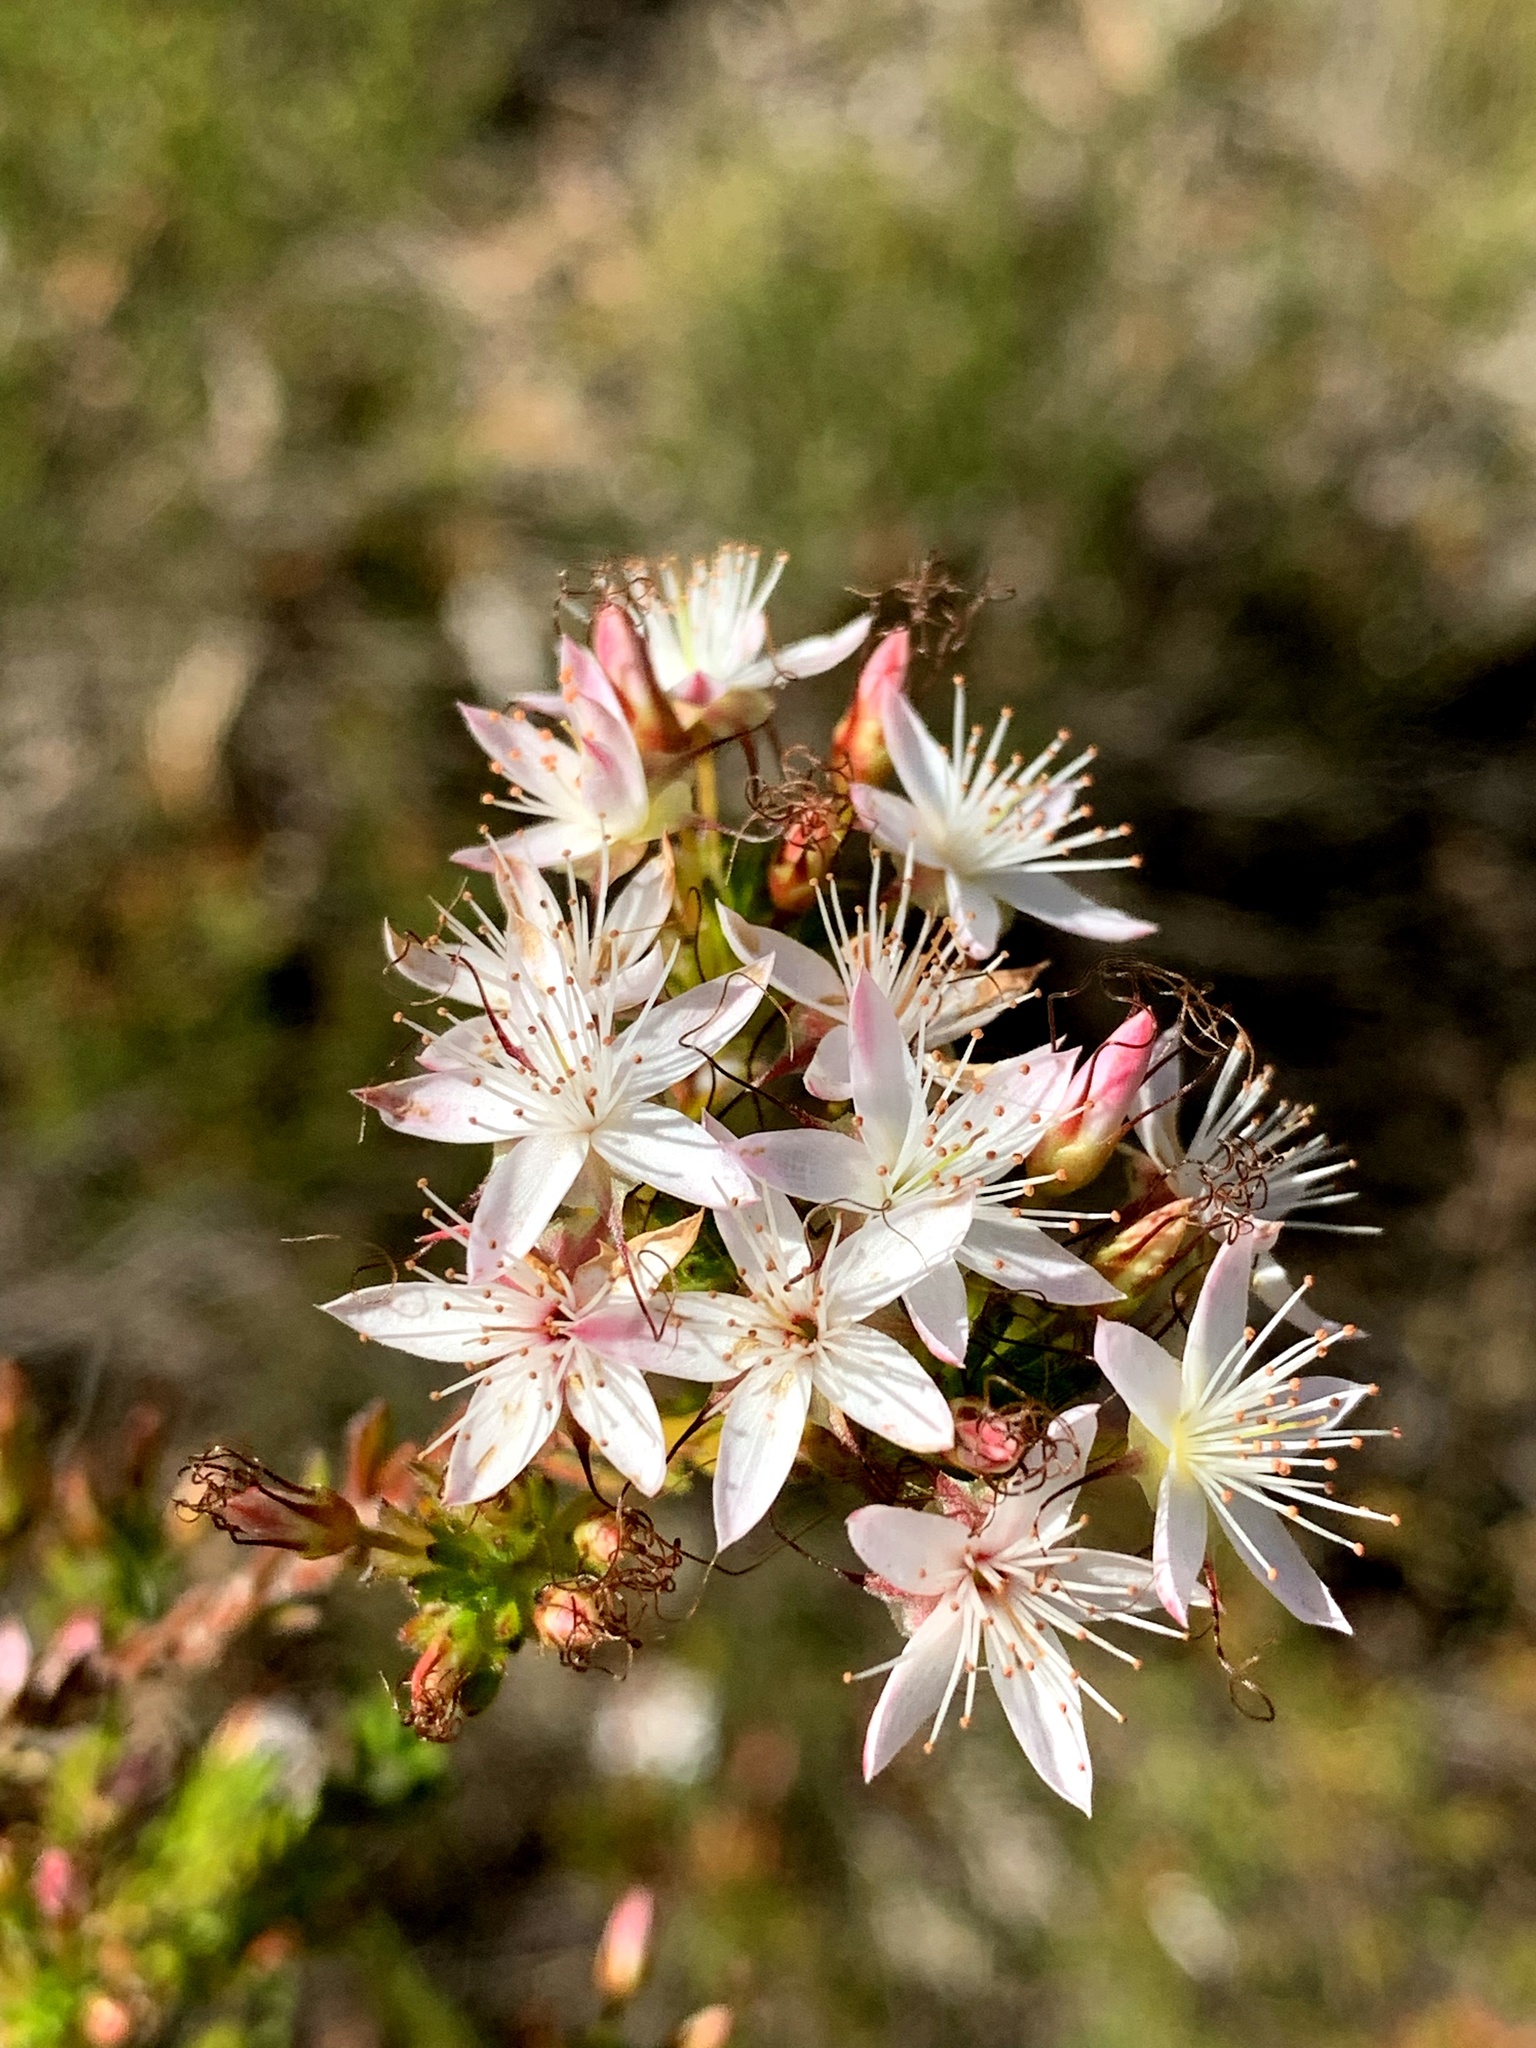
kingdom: Plantae
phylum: Tracheophyta
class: Magnoliopsida
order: Myrtales
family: Myrtaceae
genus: Calytrix
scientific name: Calytrix tetragona
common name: Common fringe myrtle
